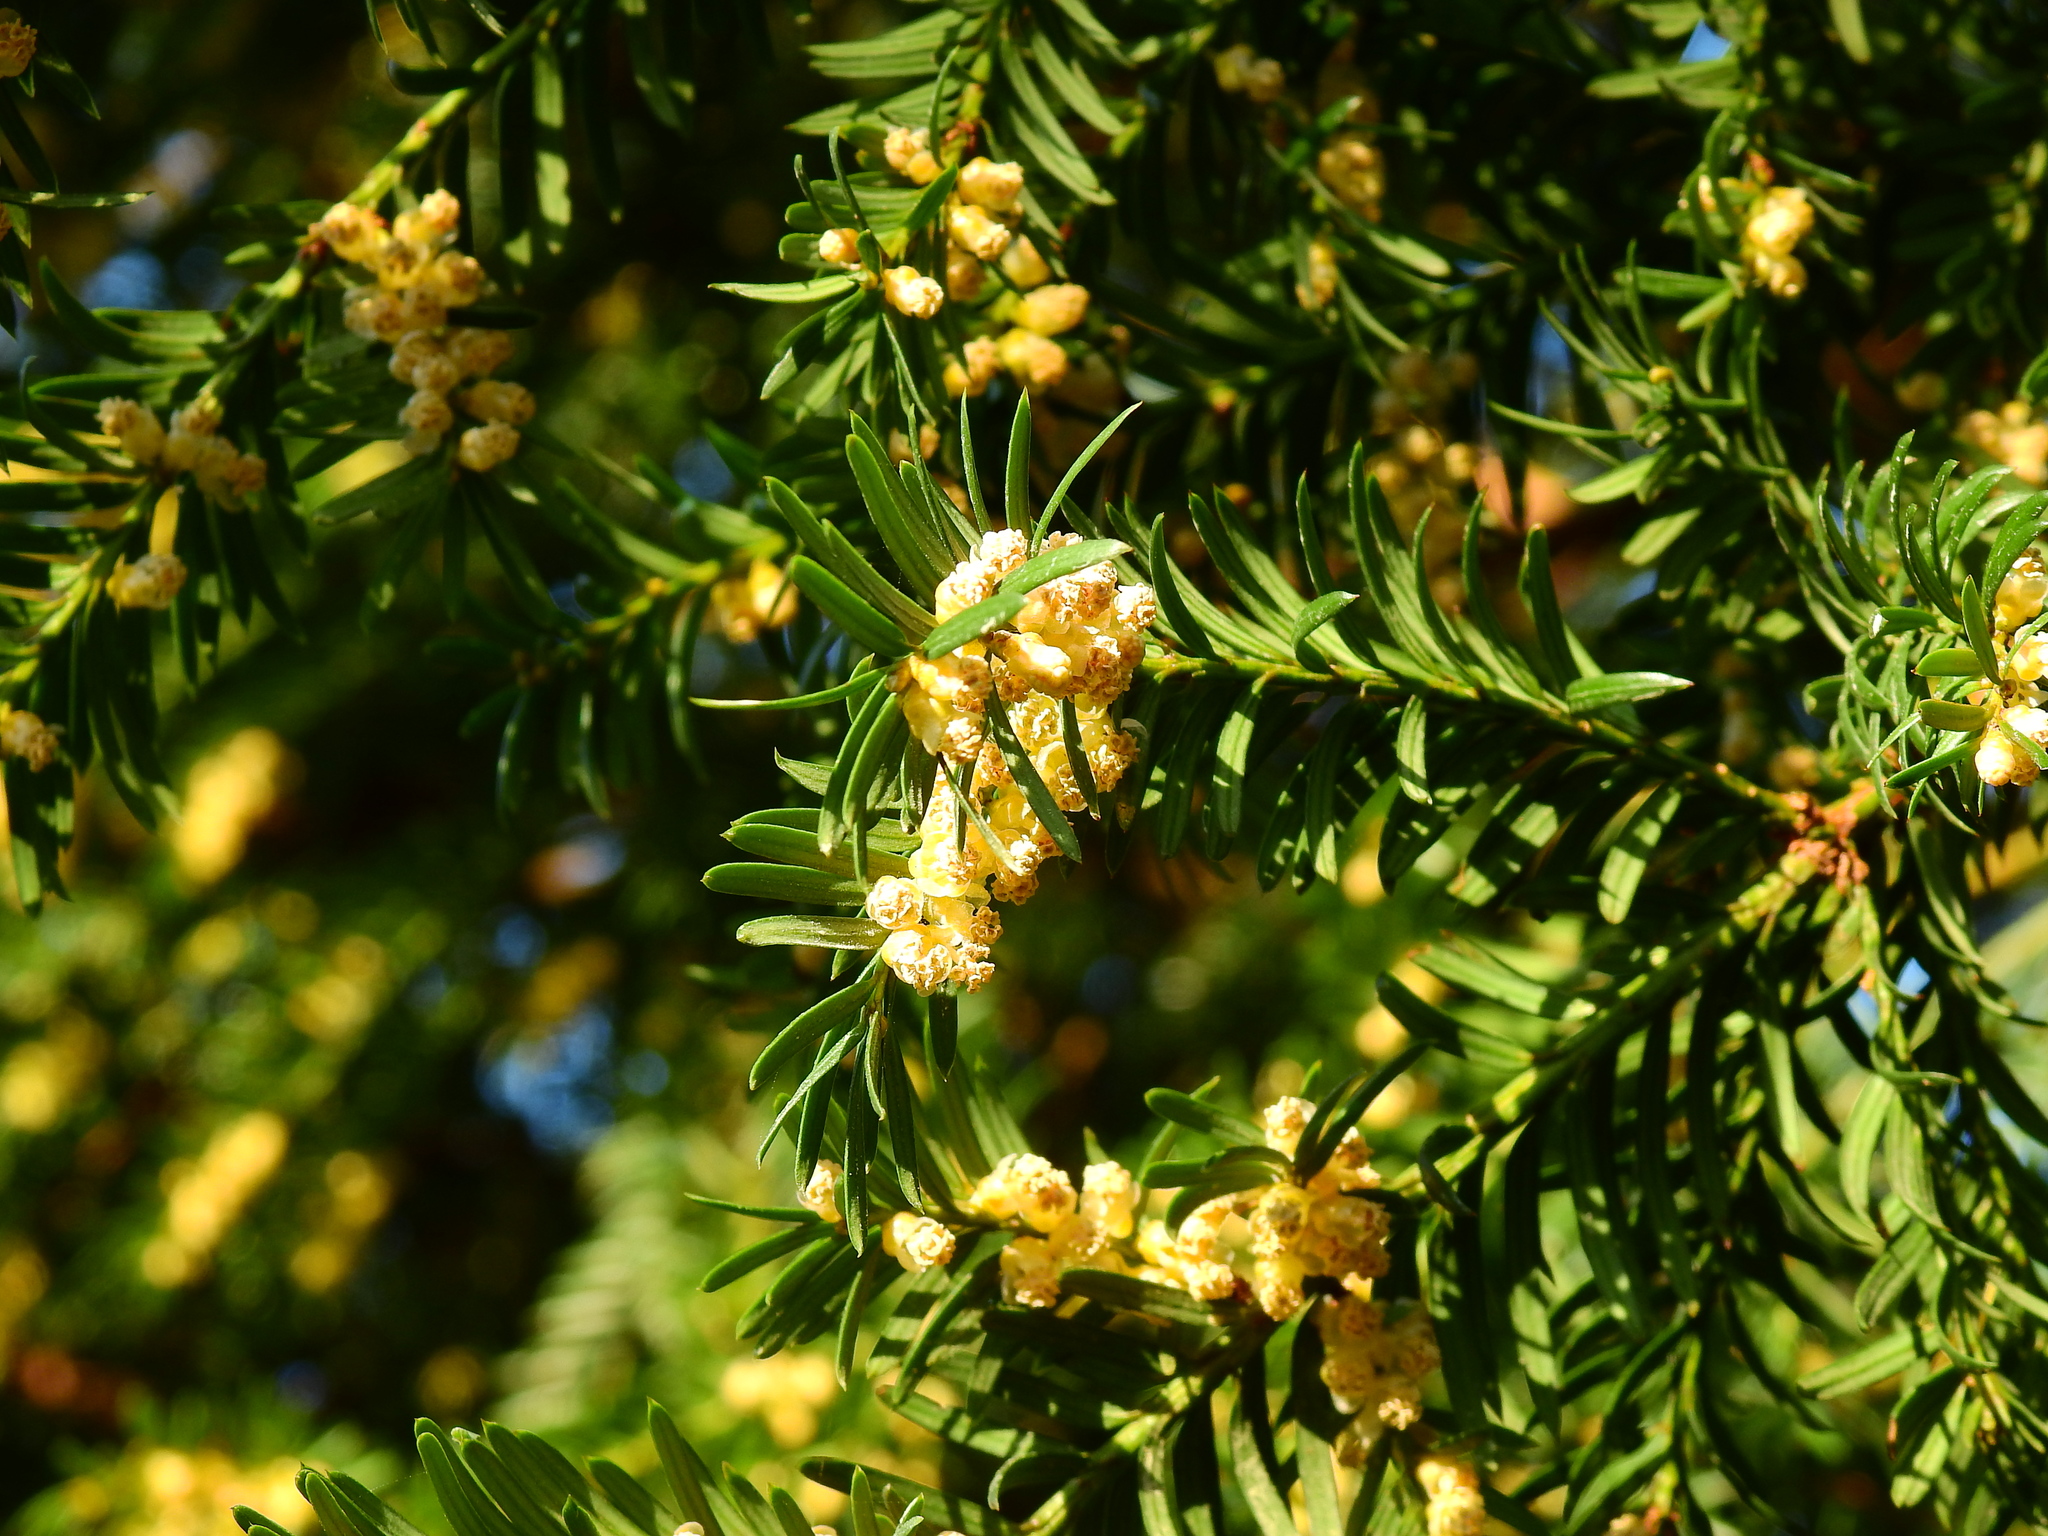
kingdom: Plantae
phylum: Tracheophyta
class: Pinopsida
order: Pinales
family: Taxaceae
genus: Taxus
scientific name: Taxus baccata
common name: Yew
